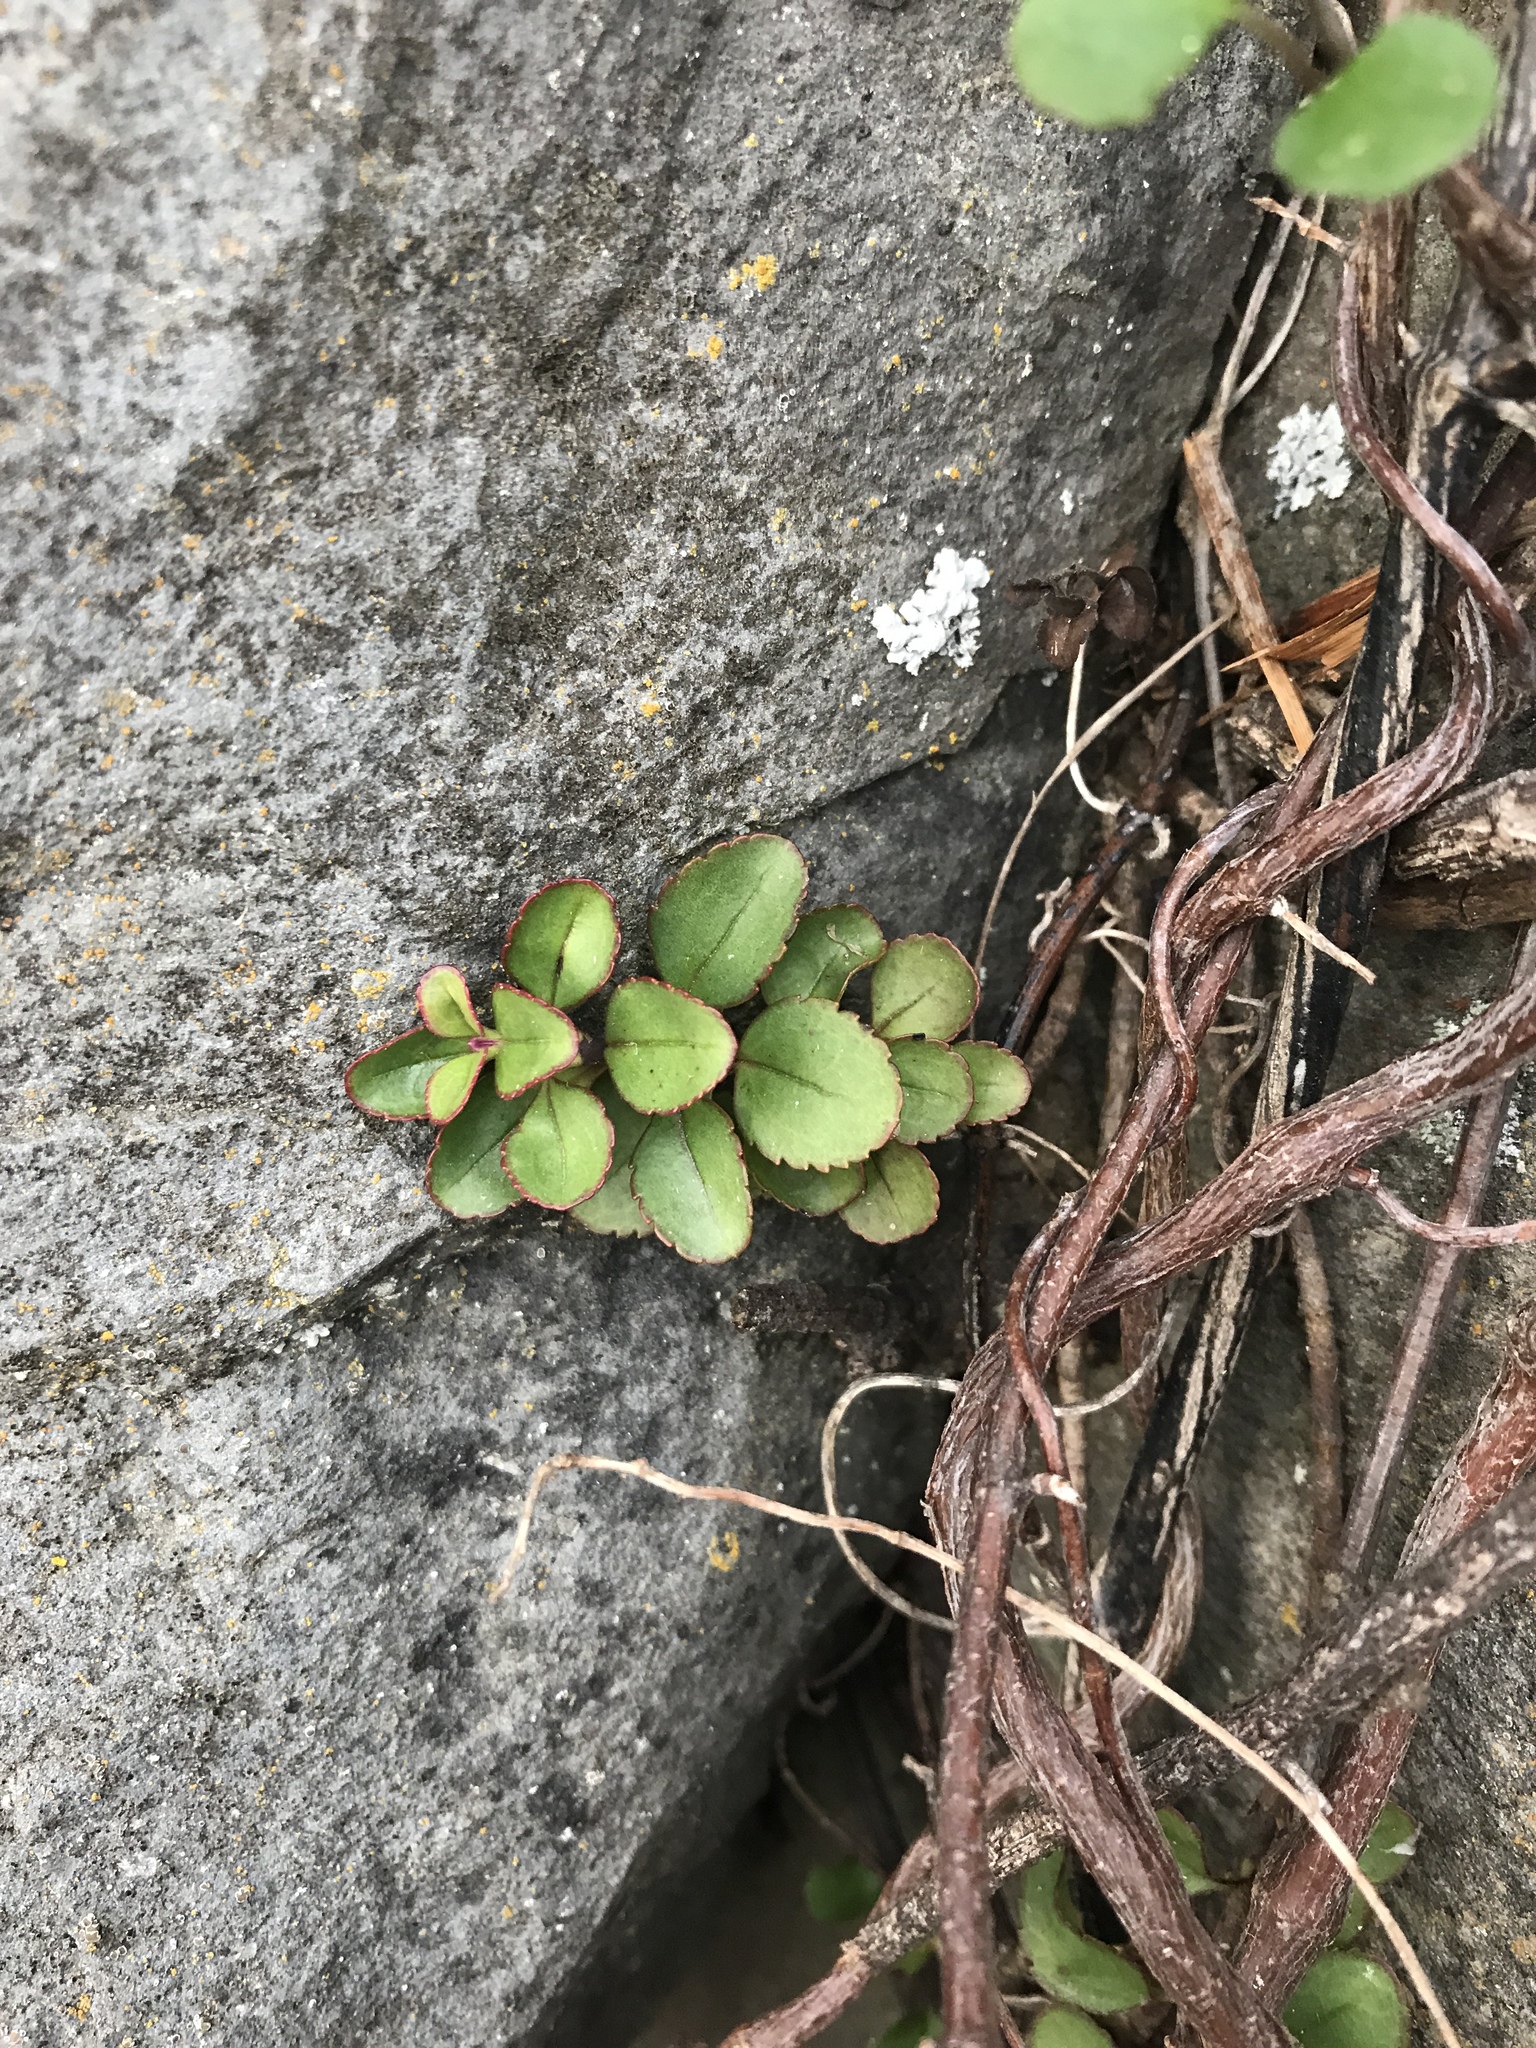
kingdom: Plantae
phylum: Tracheophyta
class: Magnoliopsida
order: Lamiales
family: Plantaginaceae
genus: Veronica
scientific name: Veronica lavaudiana
